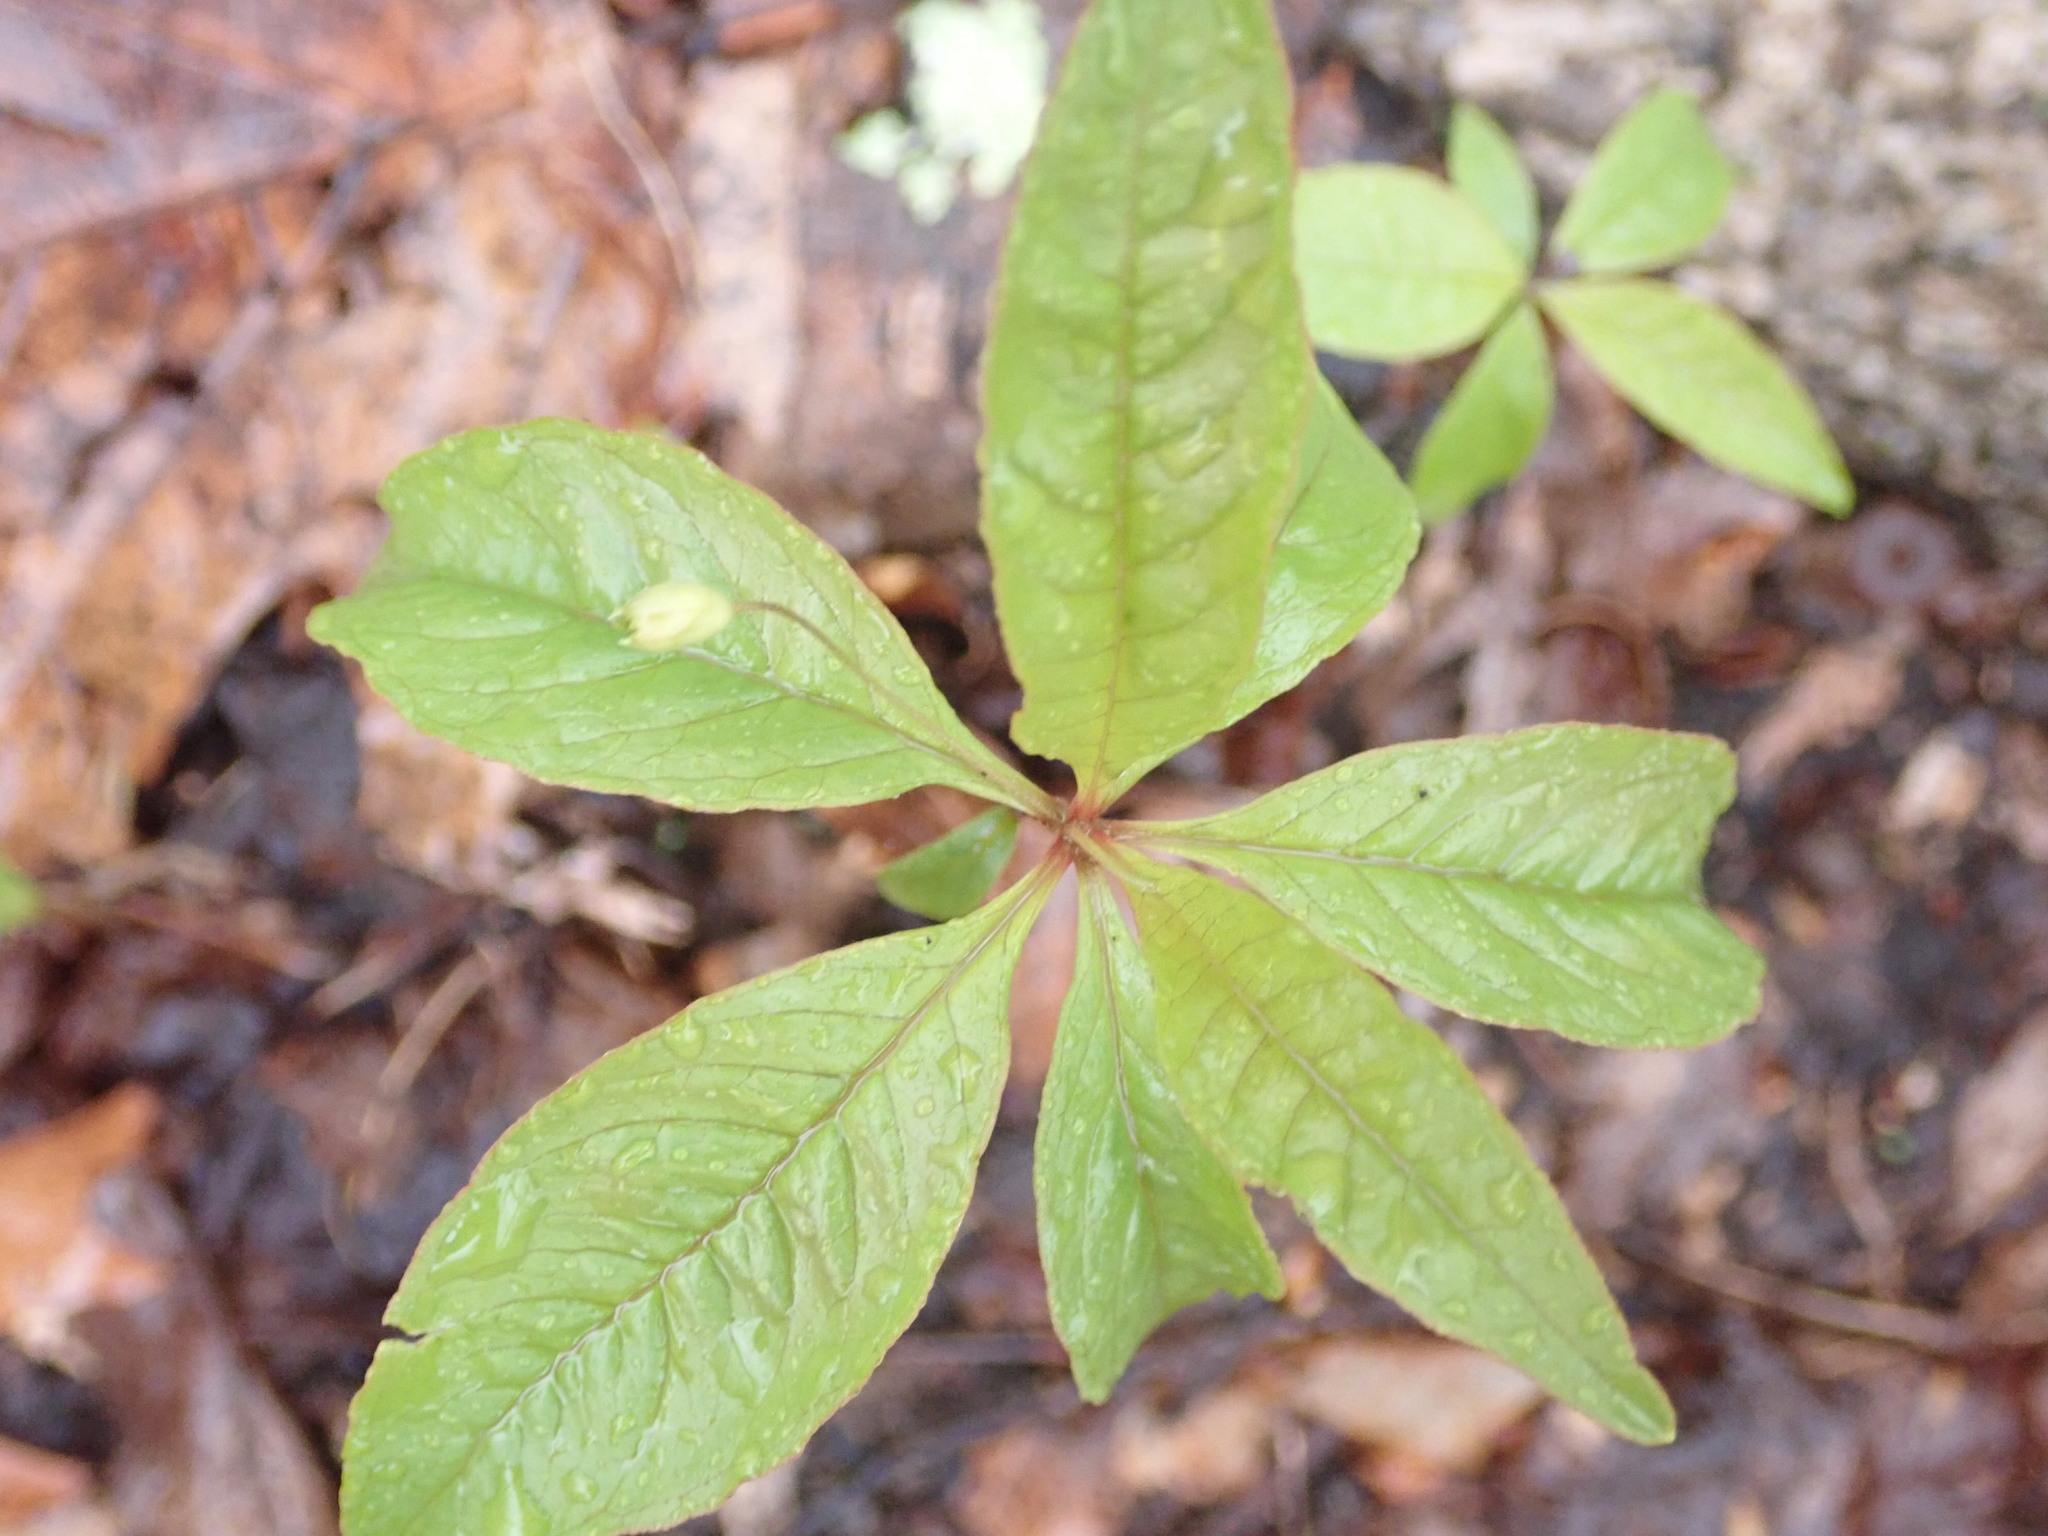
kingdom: Plantae
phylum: Tracheophyta
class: Magnoliopsida
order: Ericales
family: Primulaceae
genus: Lysimachia
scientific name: Lysimachia borealis
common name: American starflower
